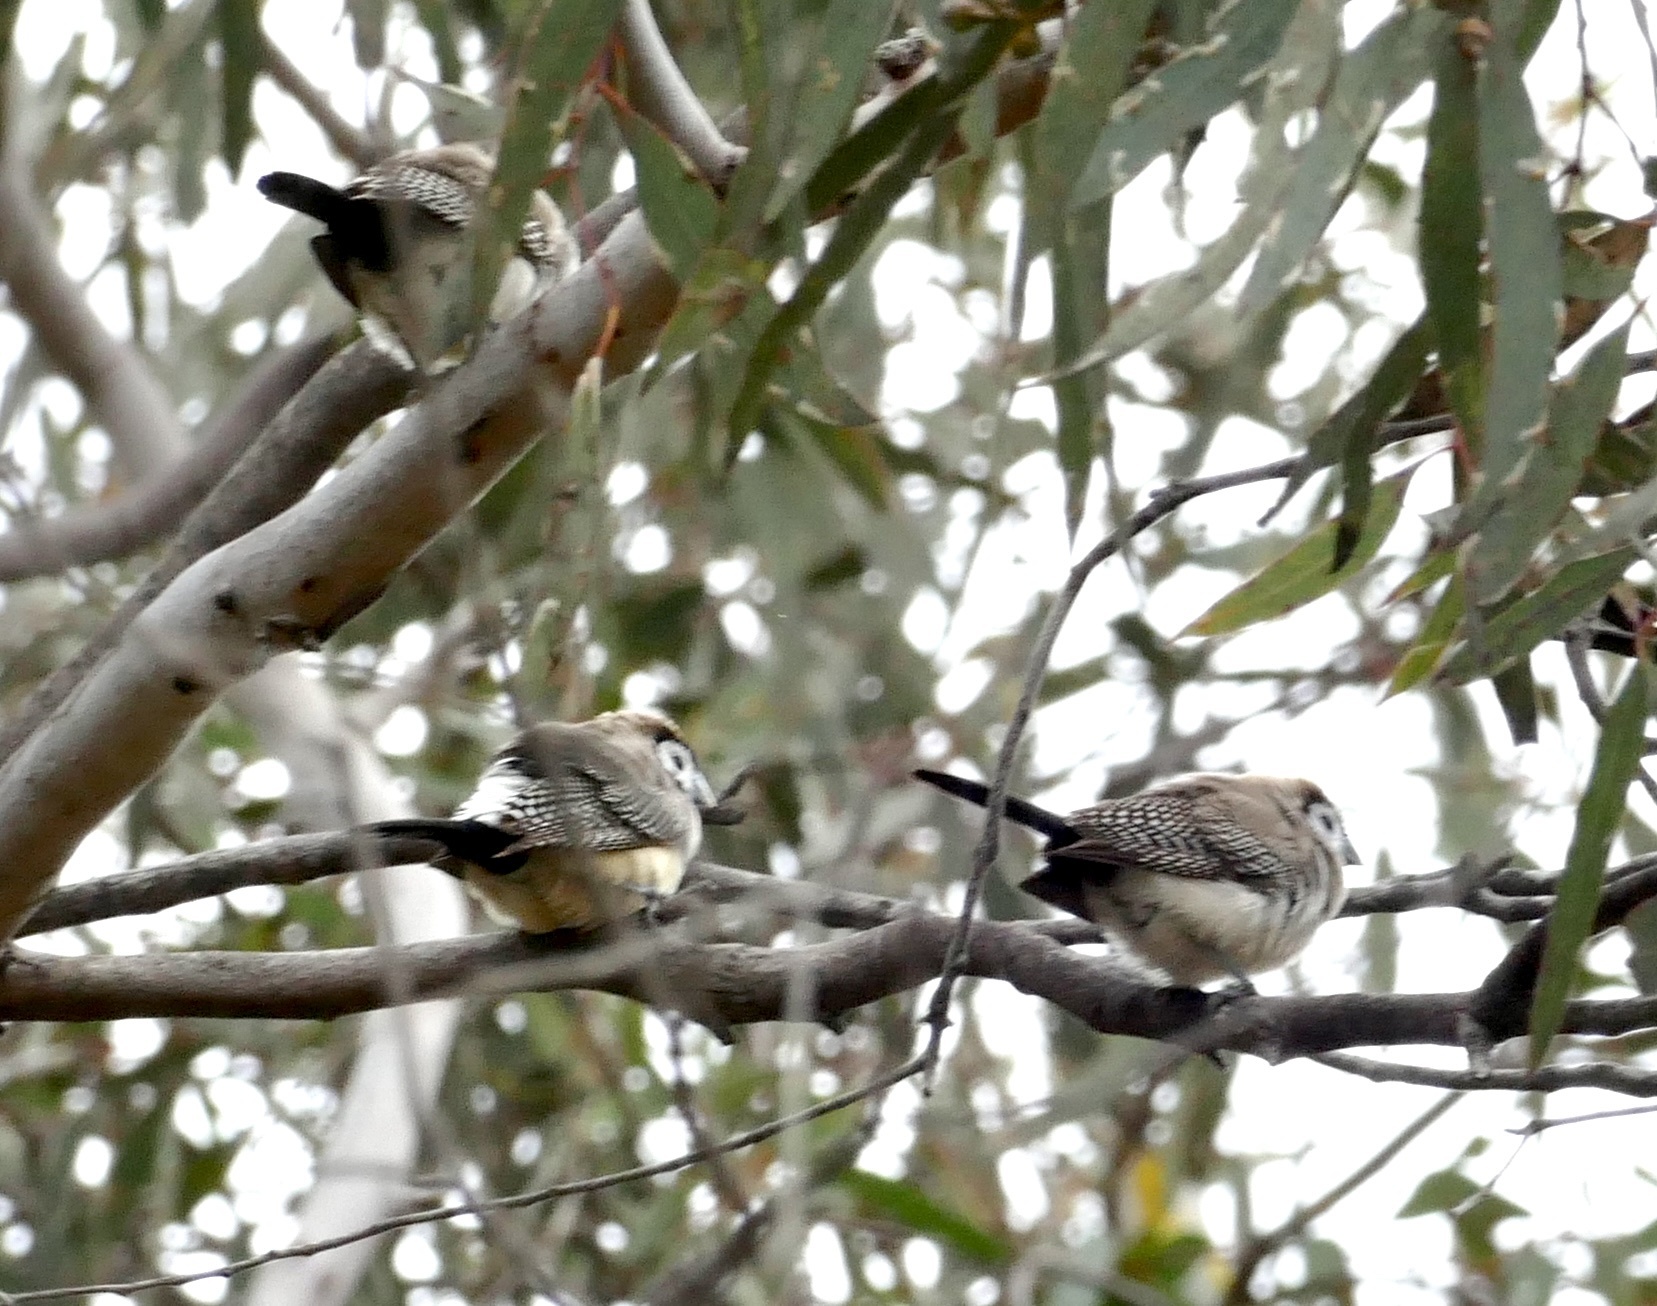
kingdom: Animalia
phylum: Chordata
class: Aves
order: Passeriformes
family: Estrildidae
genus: Taeniopygia
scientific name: Taeniopygia bichenovii
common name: Double-barred finch
